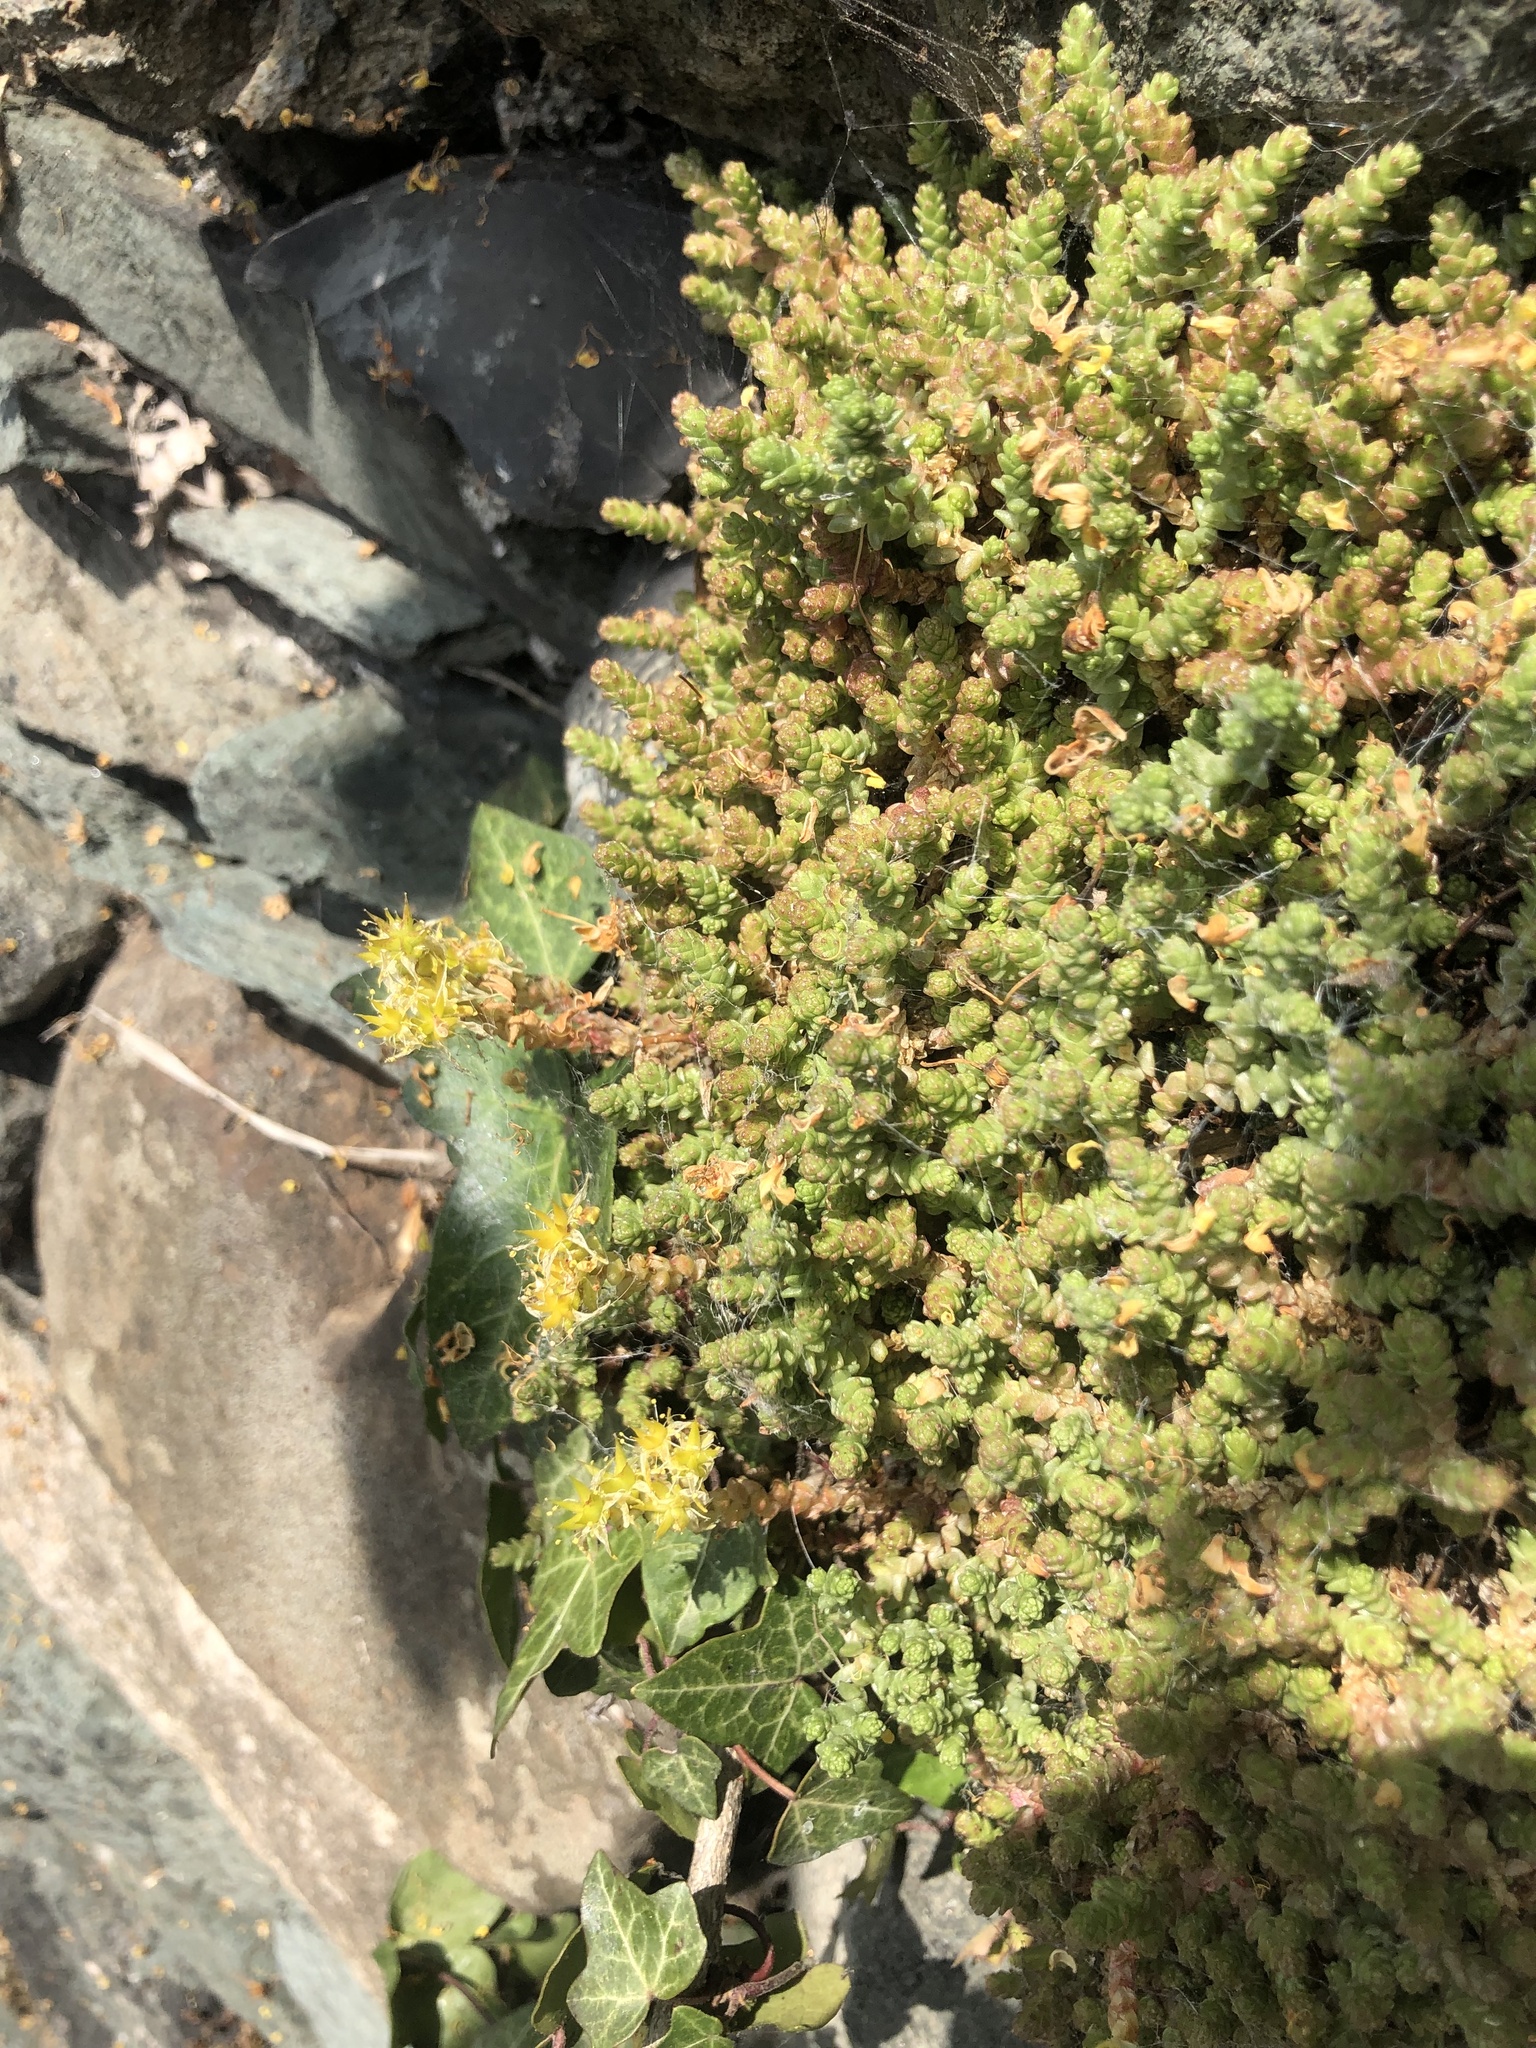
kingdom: Plantae
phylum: Tracheophyta
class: Magnoliopsida
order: Saxifragales
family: Crassulaceae
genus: Sedum
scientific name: Sedum acre
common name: Biting stonecrop
